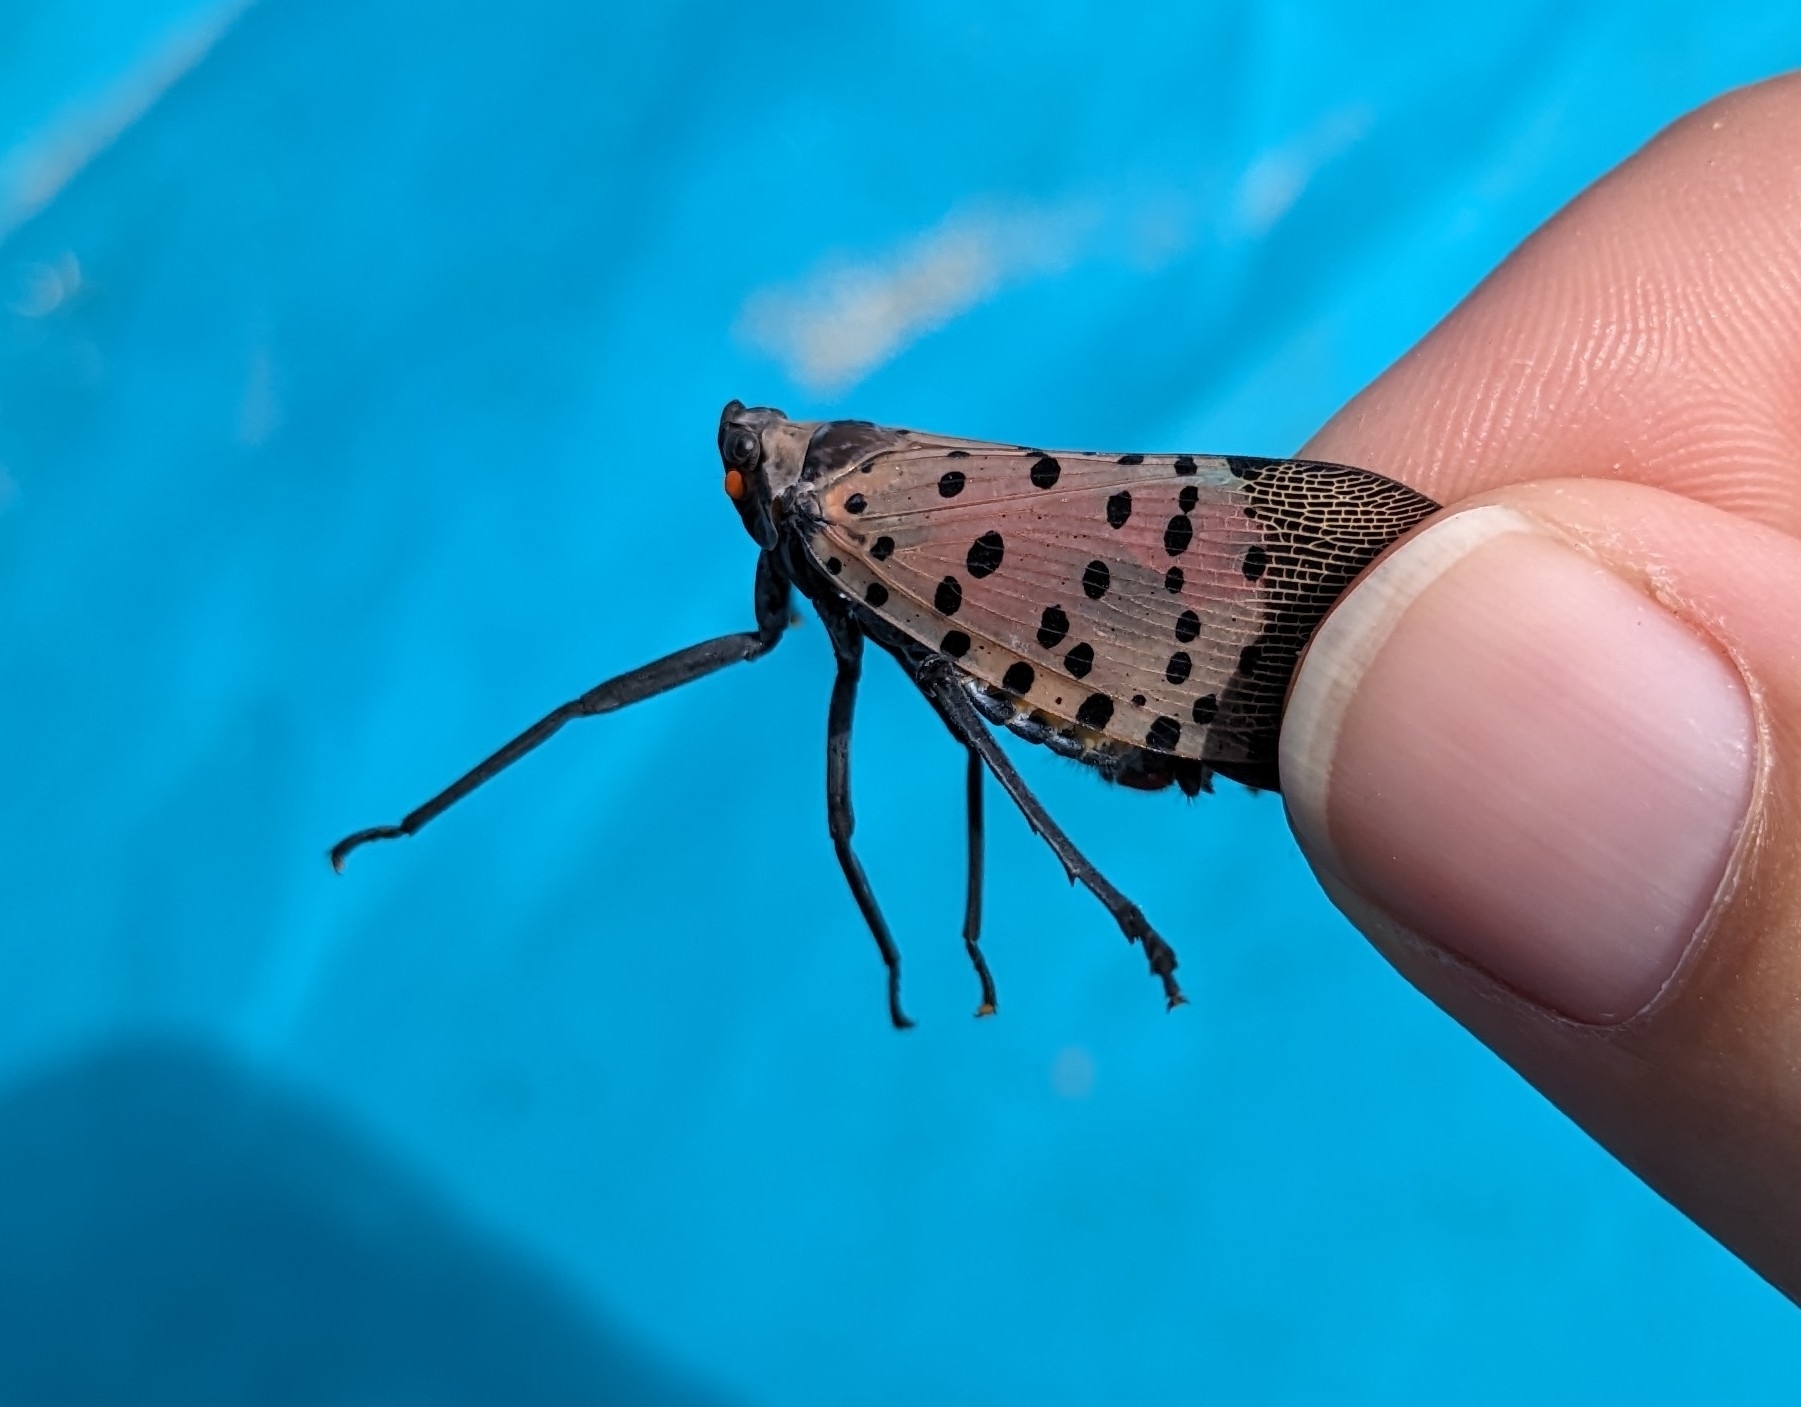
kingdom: Animalia
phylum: Arthropoda
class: Insecta
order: Hemiptera
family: Fulgoridae
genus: Lycorma
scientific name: Lycorma delicatula
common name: Spotted lanternfly
